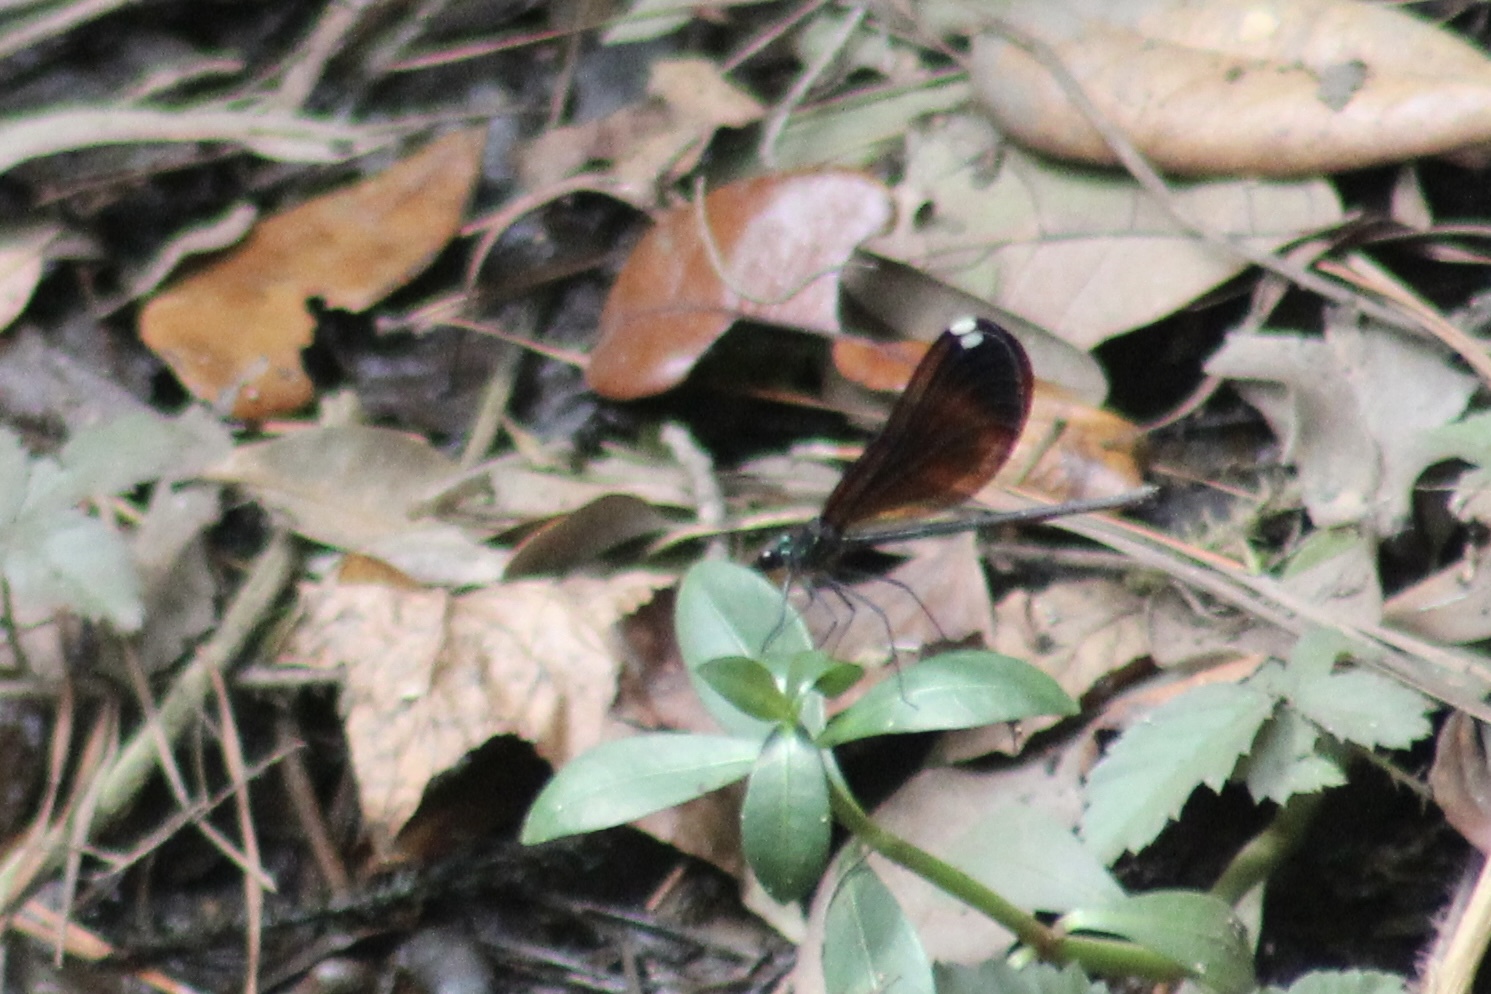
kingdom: Animalia
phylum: Arthropoda
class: Insecta
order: Odonata
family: Calopterygidae
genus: Calopteryx
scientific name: Calopteryx maculata
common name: Ebony jewelwing
